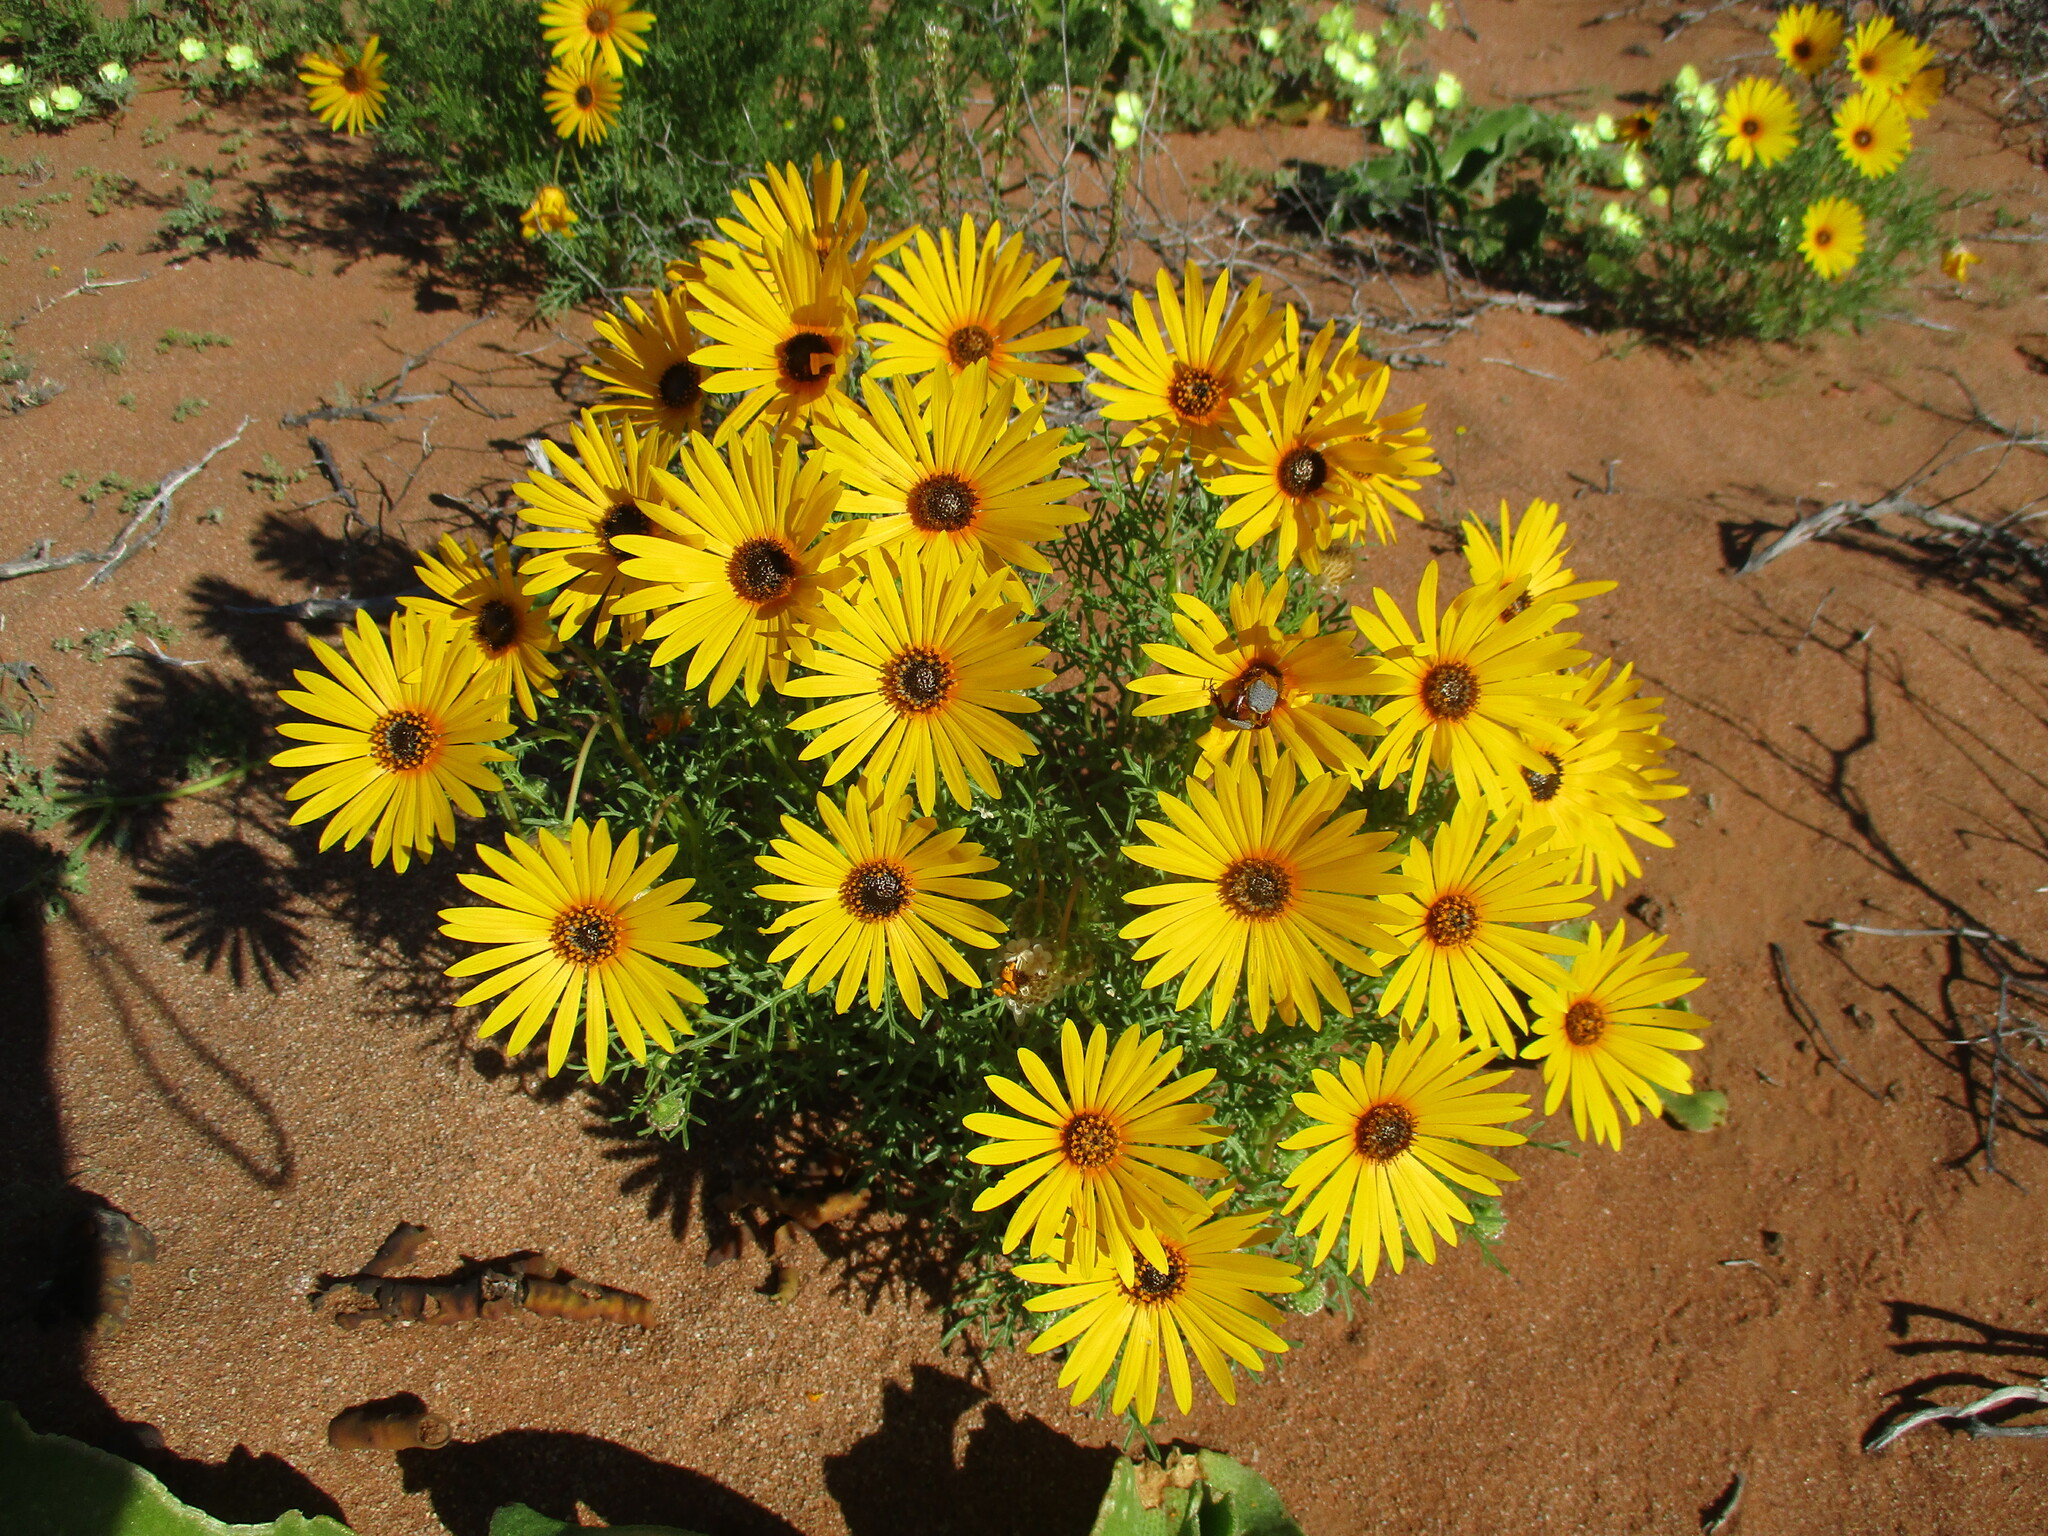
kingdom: Plantae
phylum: Tracheophyta
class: Magnoliopsida
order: Asterales
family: Asteraceae
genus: Ursinia
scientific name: Ursinia speciosa
